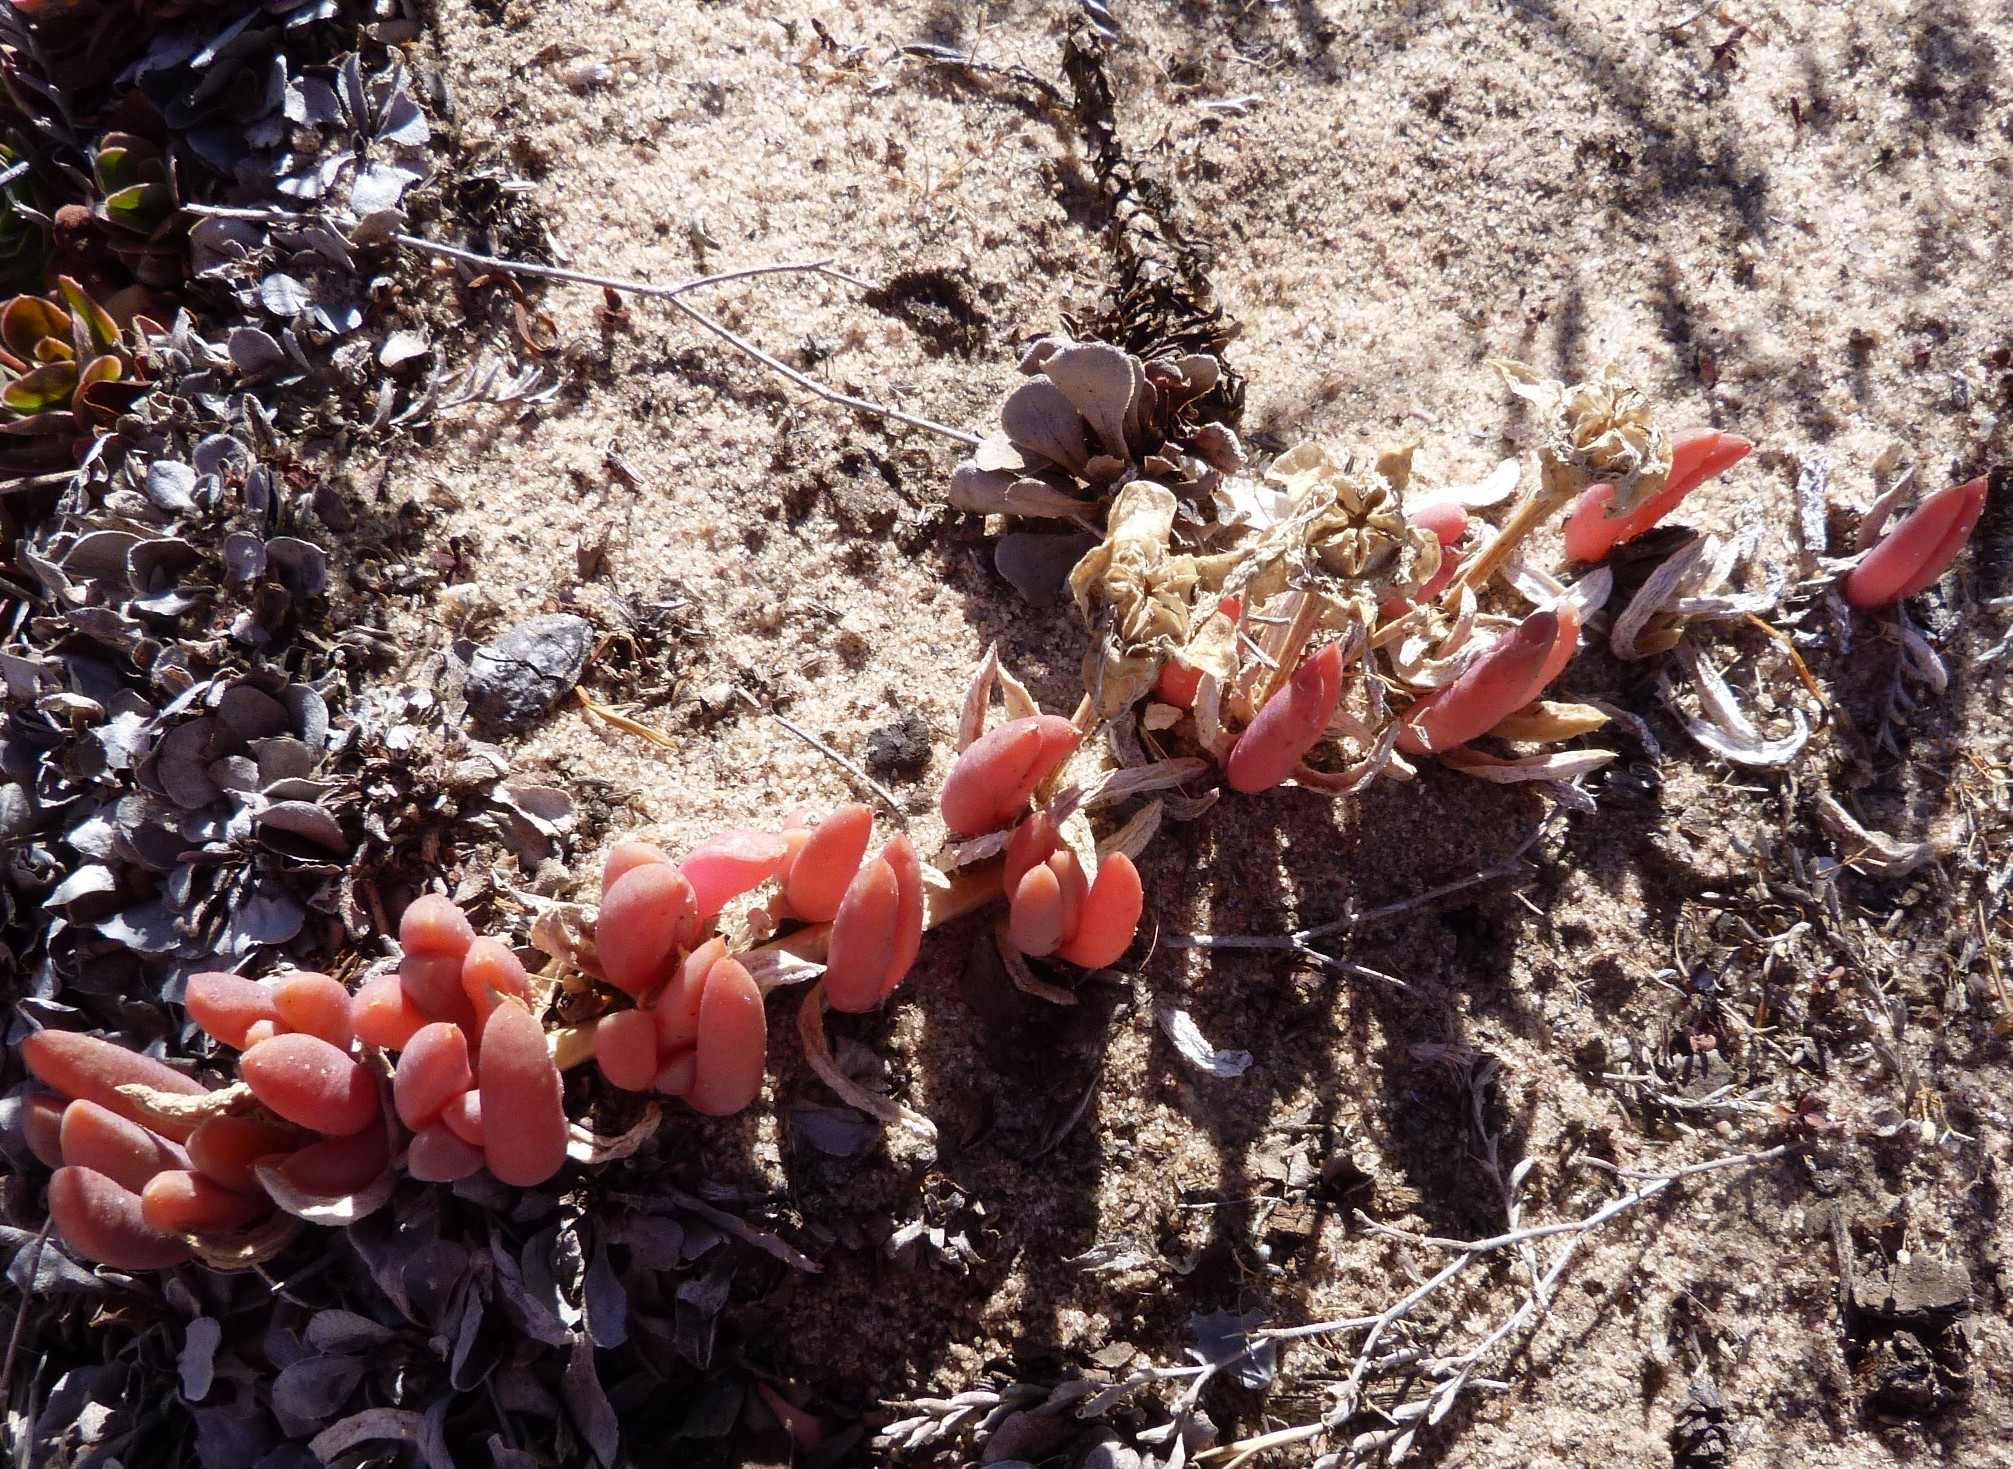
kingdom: Plantae
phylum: Tracheophyta
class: Magnoliopsida
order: Caryophyllales
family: Aizoaceae
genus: Disphyma
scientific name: Disphyma clavellatum
